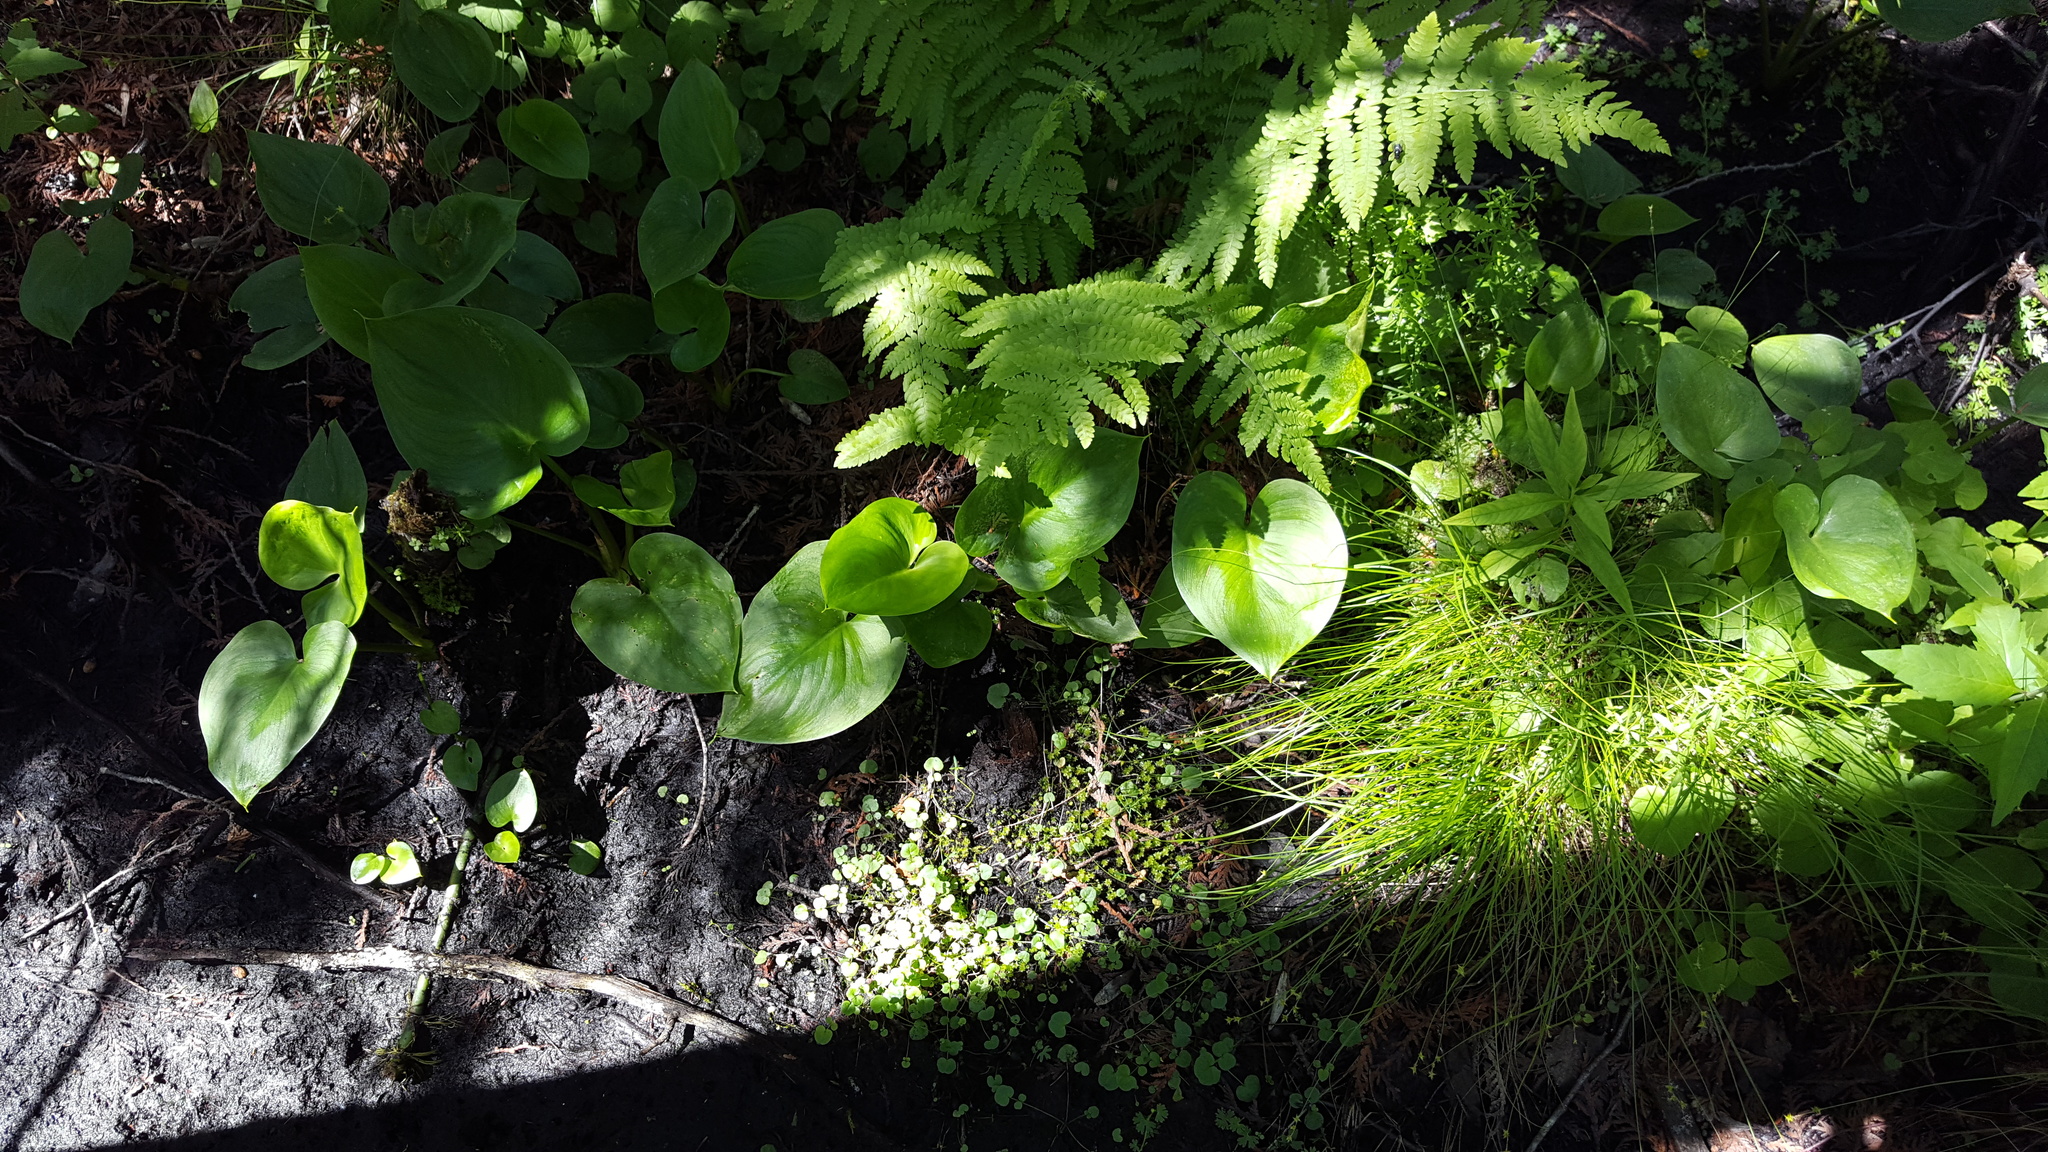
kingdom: Plantae
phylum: Tracheophyta
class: Liliopsida
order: Alismatales
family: Araceae
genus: Calla
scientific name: Calla palustris
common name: Bog arum
